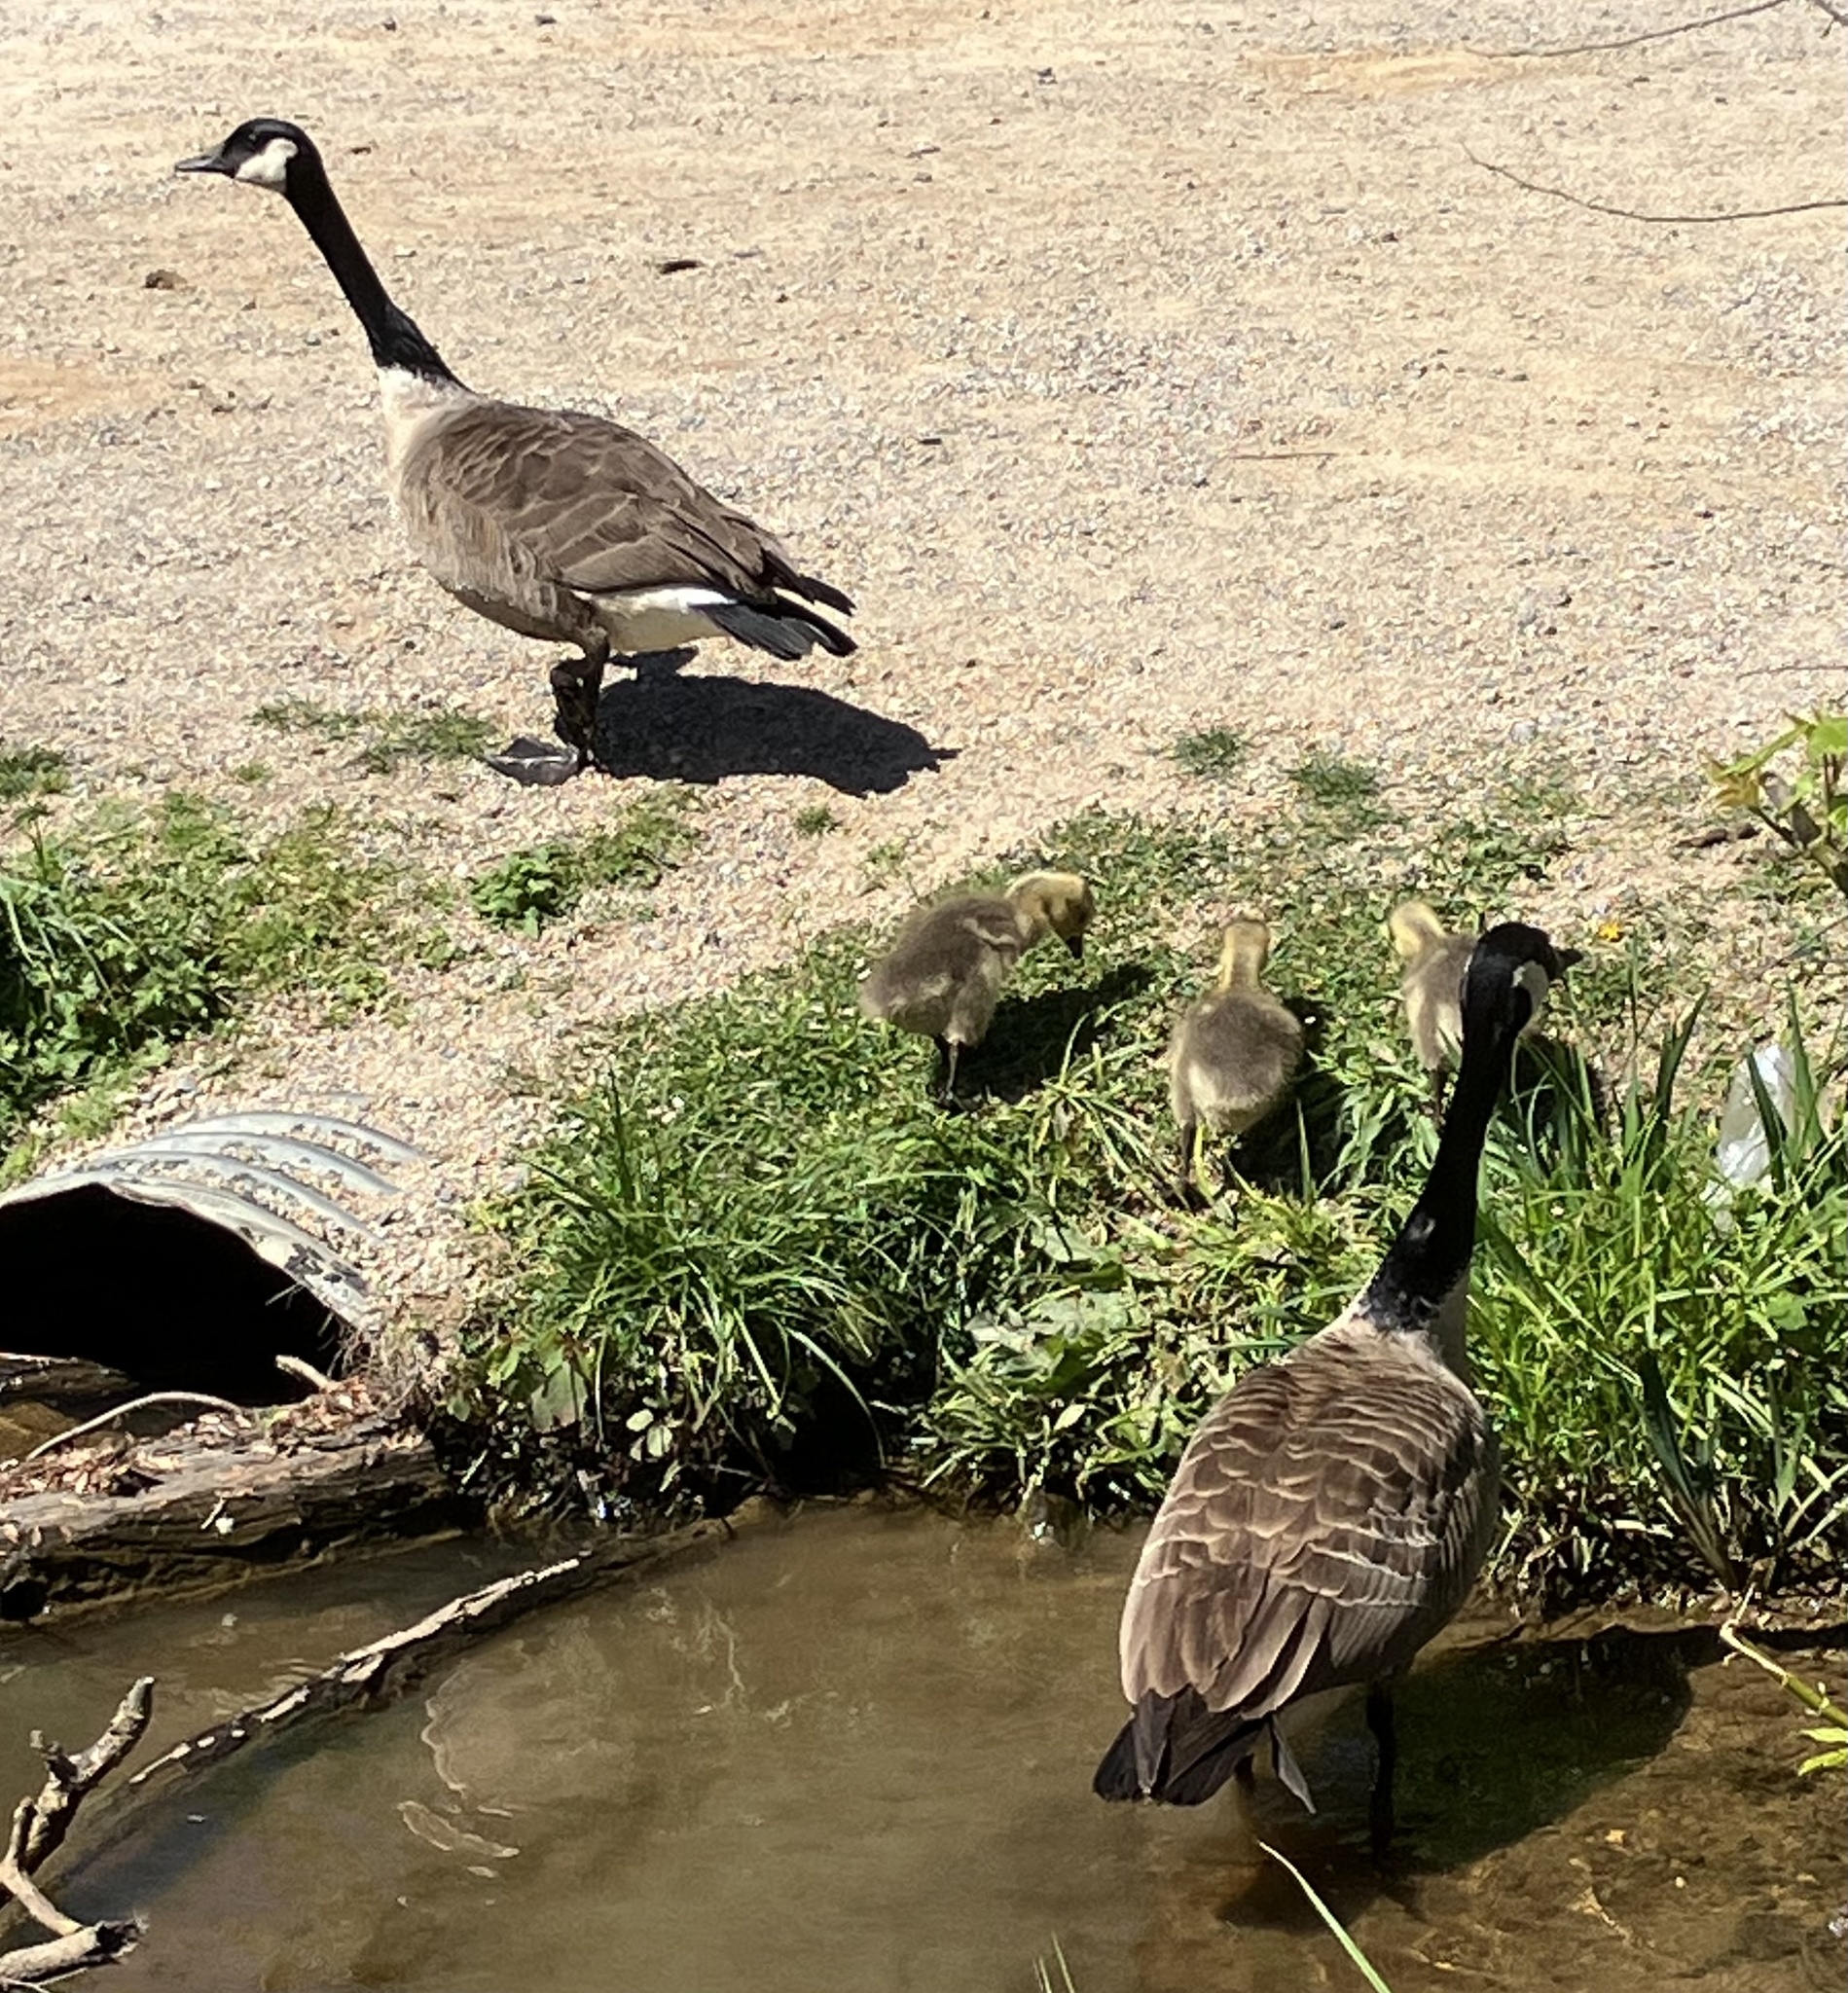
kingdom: Animalia
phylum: Chordata
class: Aves
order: Anseriformes
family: Anatidae
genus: Branta
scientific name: Branta canadensis
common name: Canada goose
